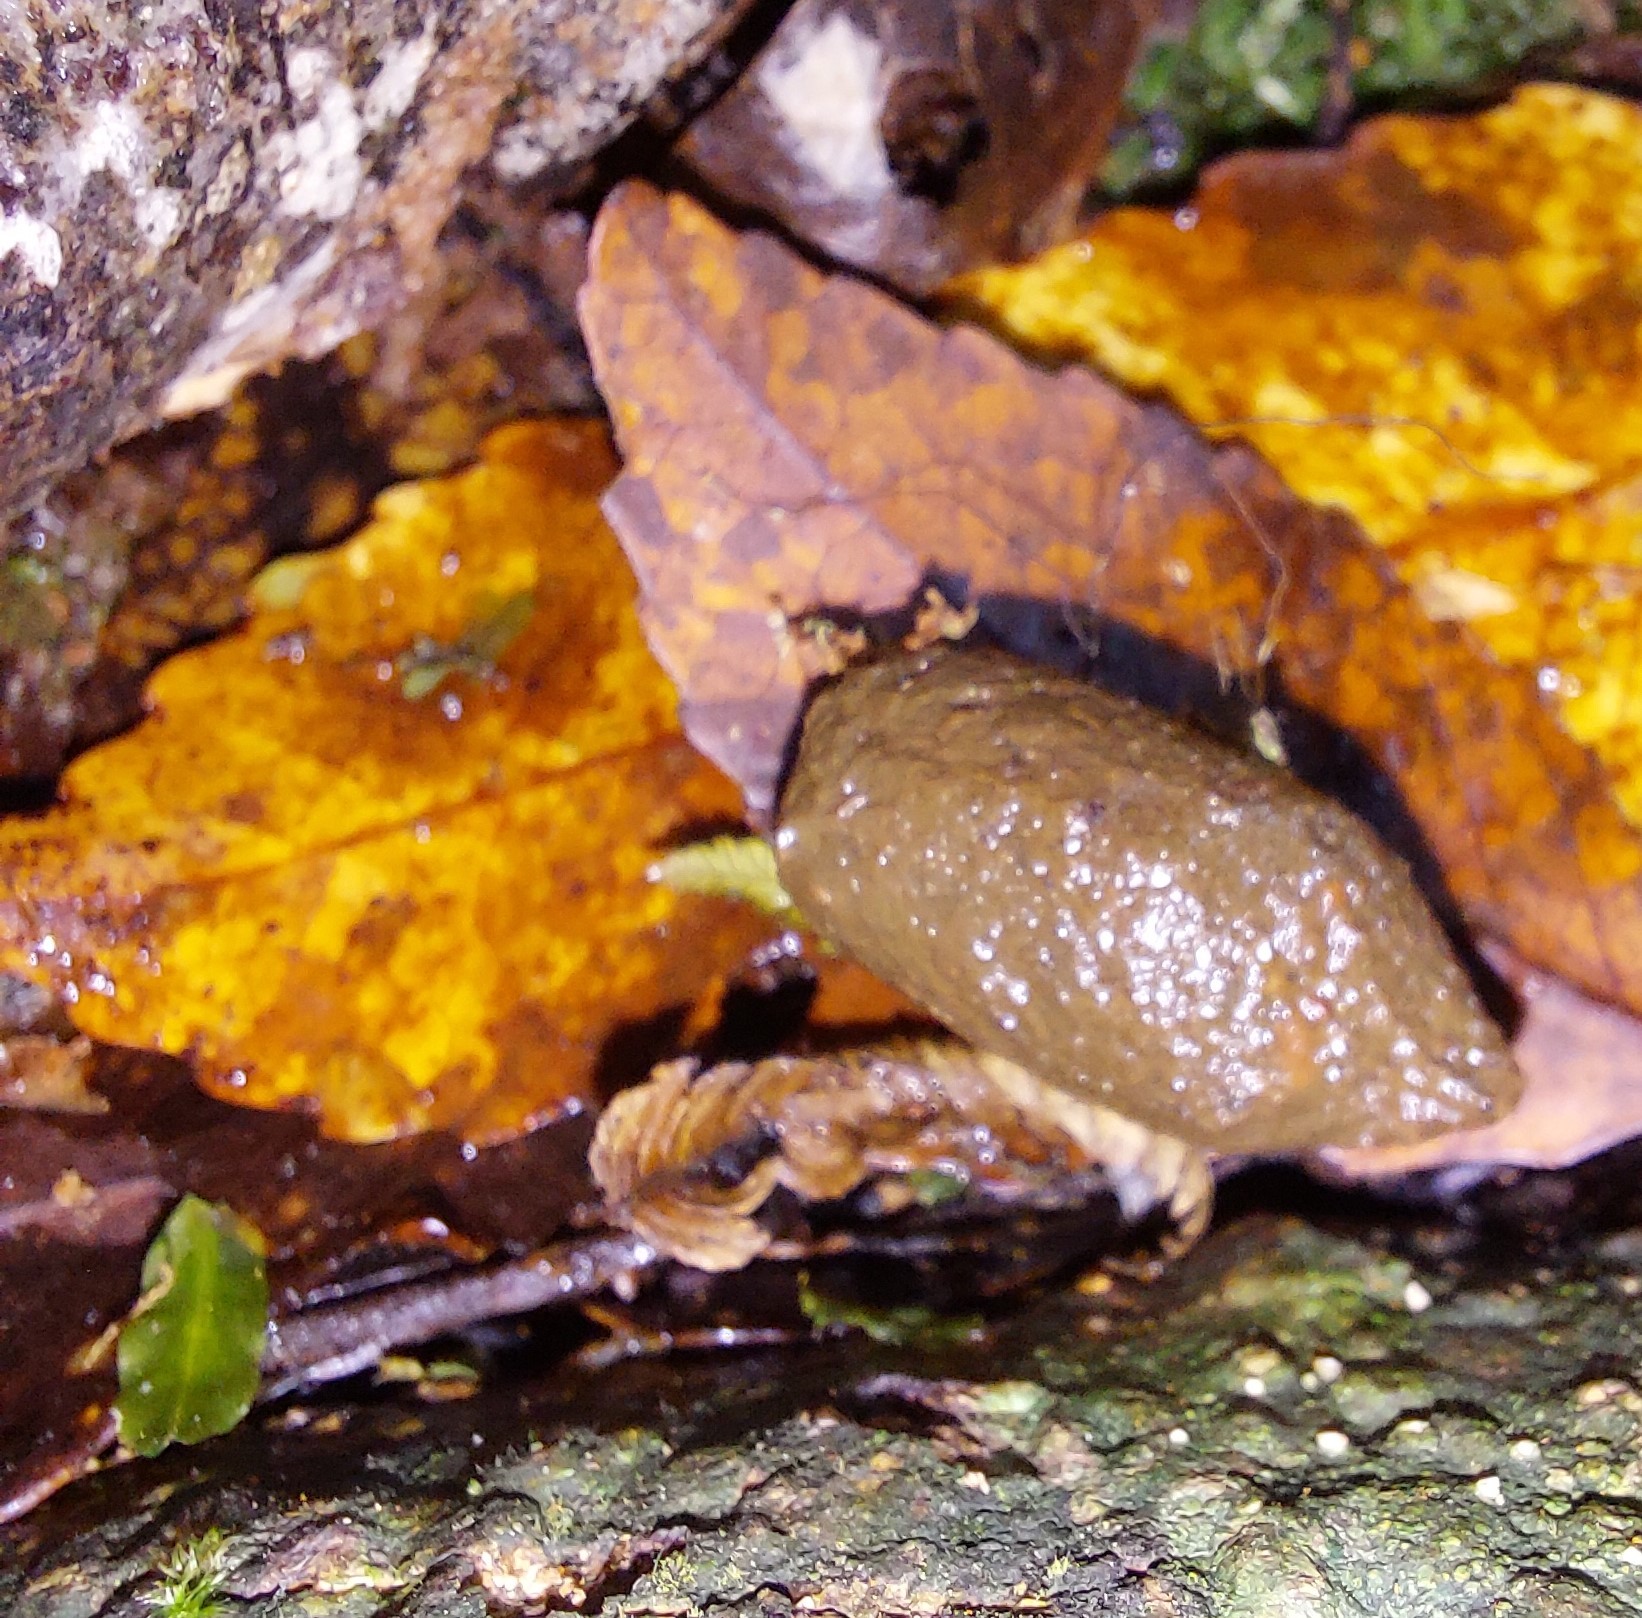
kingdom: Animalia
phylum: Chordata
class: Mammalia
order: Diprotodontia
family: Phalangeridae
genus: Trichosurus
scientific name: Trichosurus vulpecula
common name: Common brushtail
